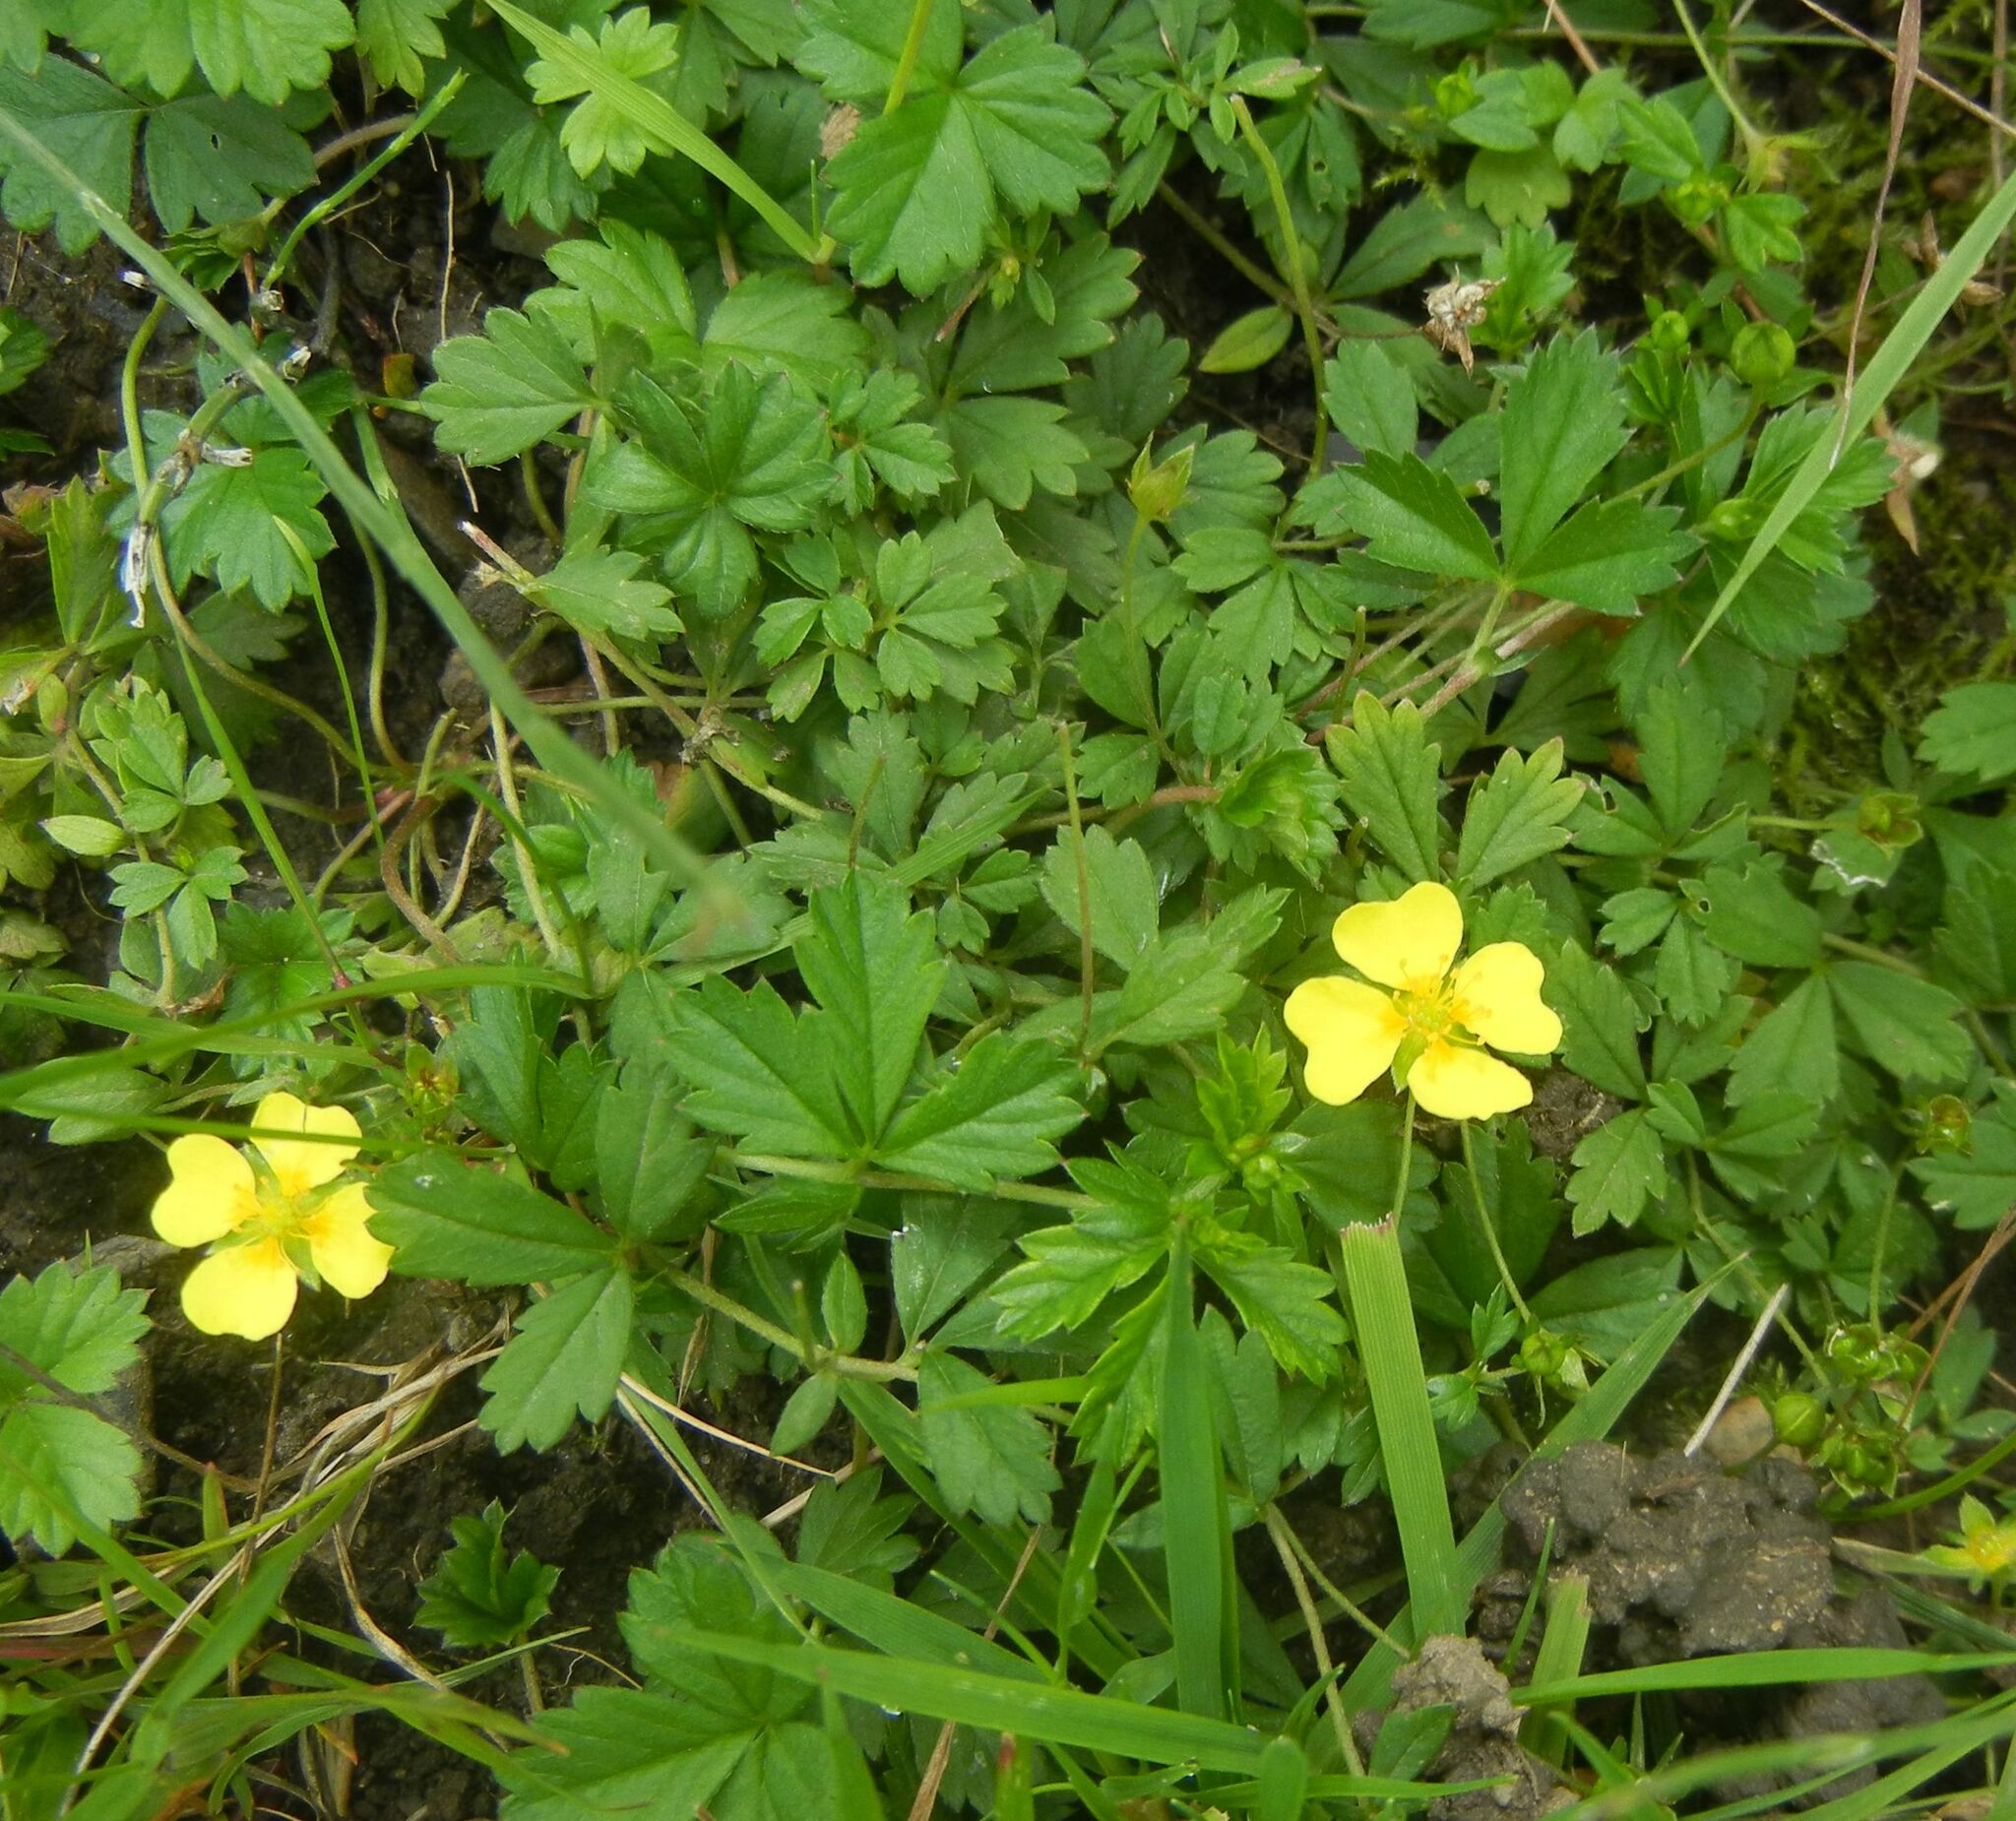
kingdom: Plantae
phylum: Tracheophyta
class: Magnoliopsida
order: Rosales
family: Rosaceae
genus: Potentilla
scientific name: Potentilla erecta
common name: Tormentil
